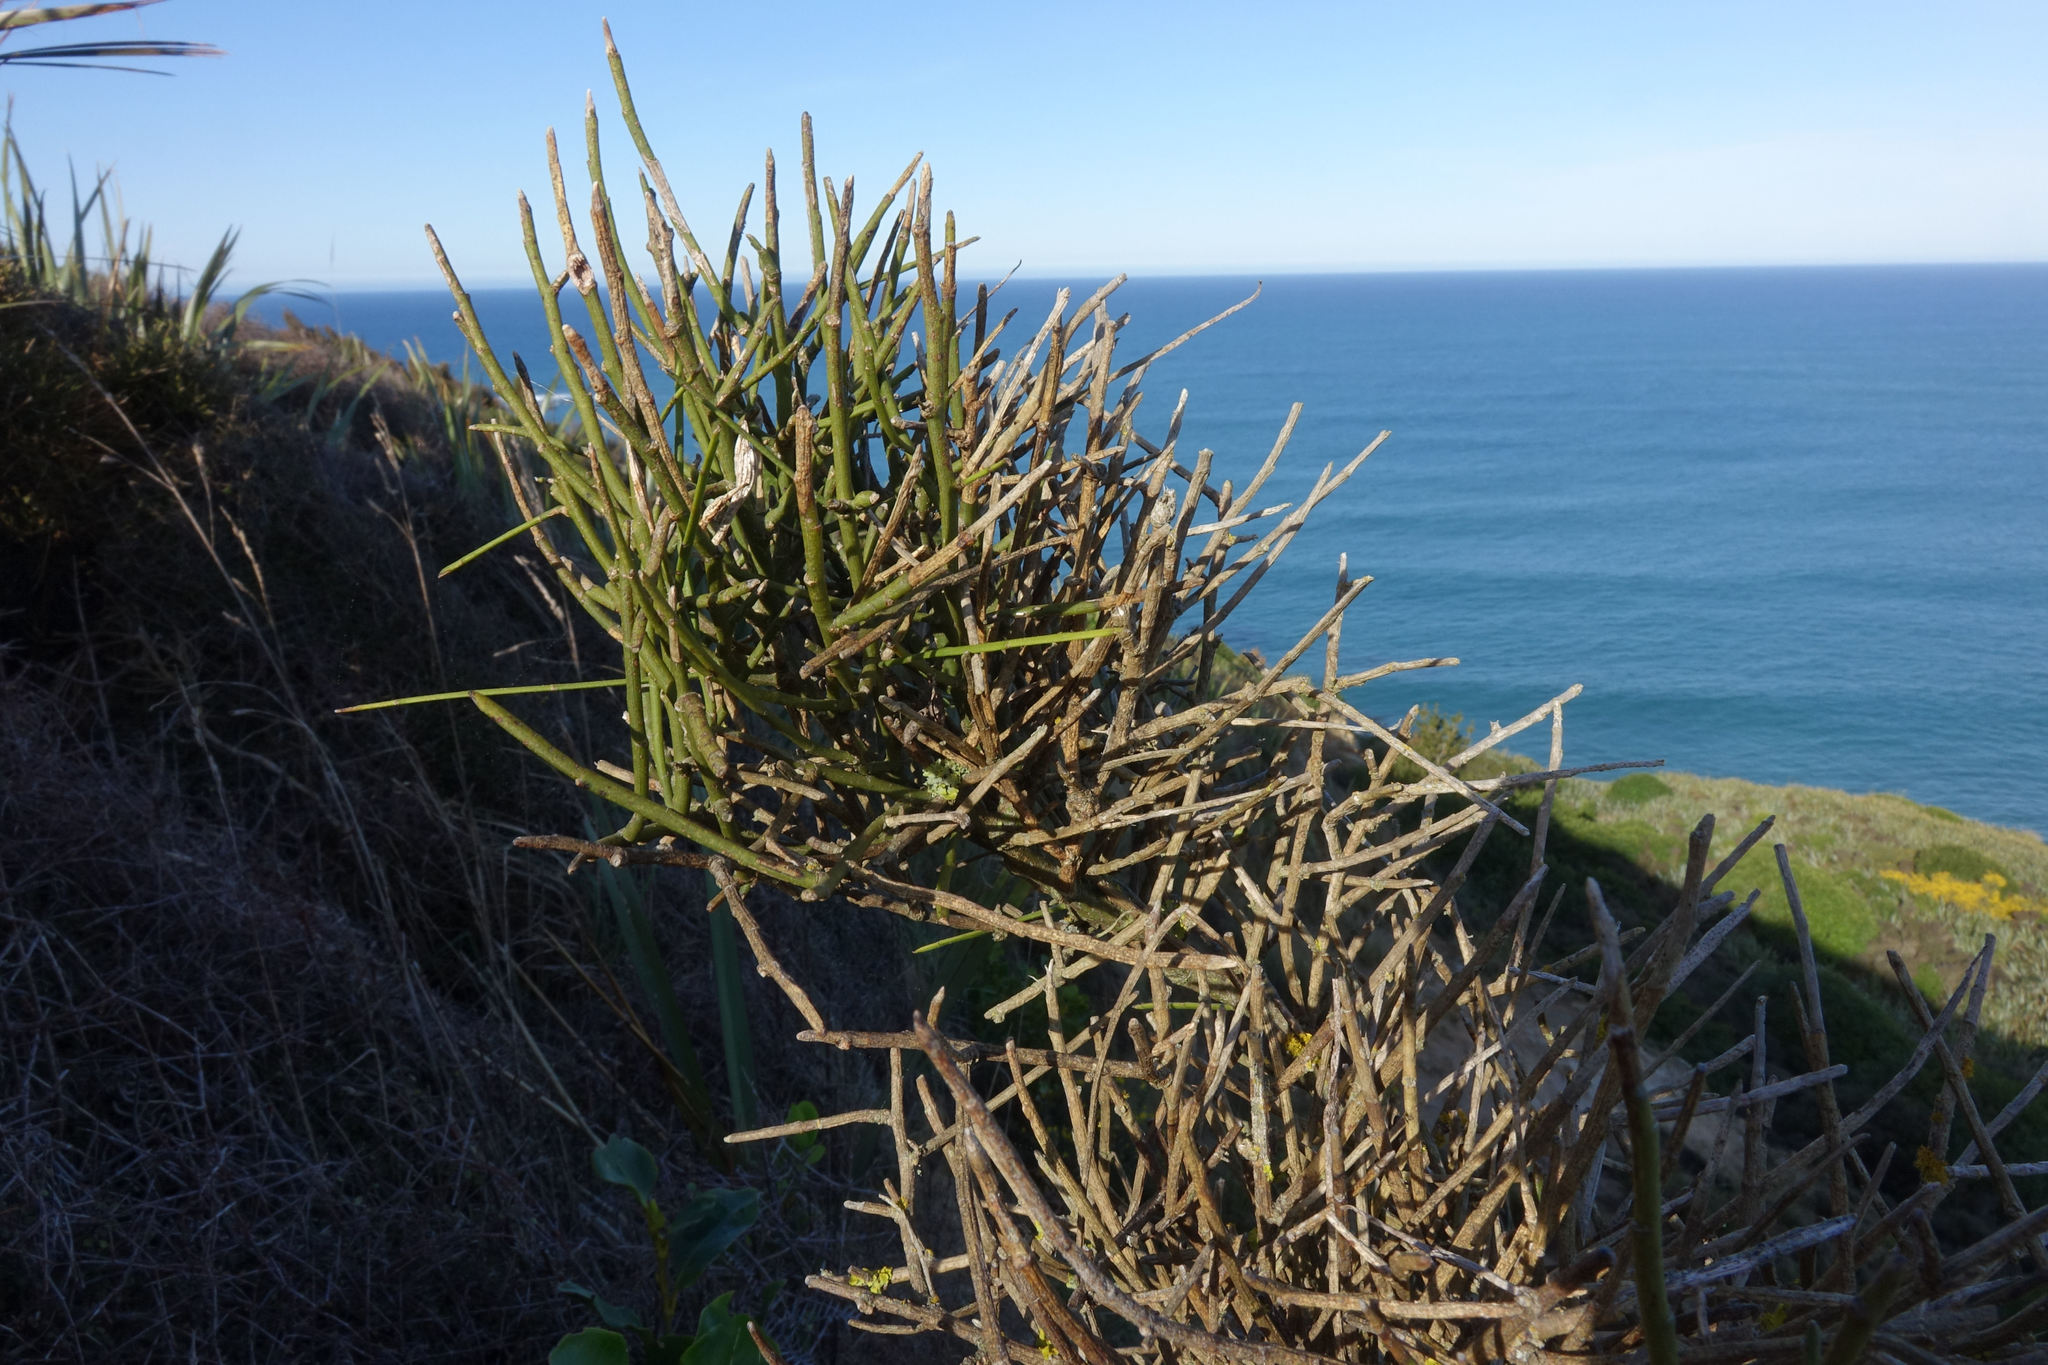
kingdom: Plantae
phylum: Tracheophyta
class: Magnoliopsida
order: Fabales
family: Fabaceae
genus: Carmichaelia
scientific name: Carmichaelia petriei
